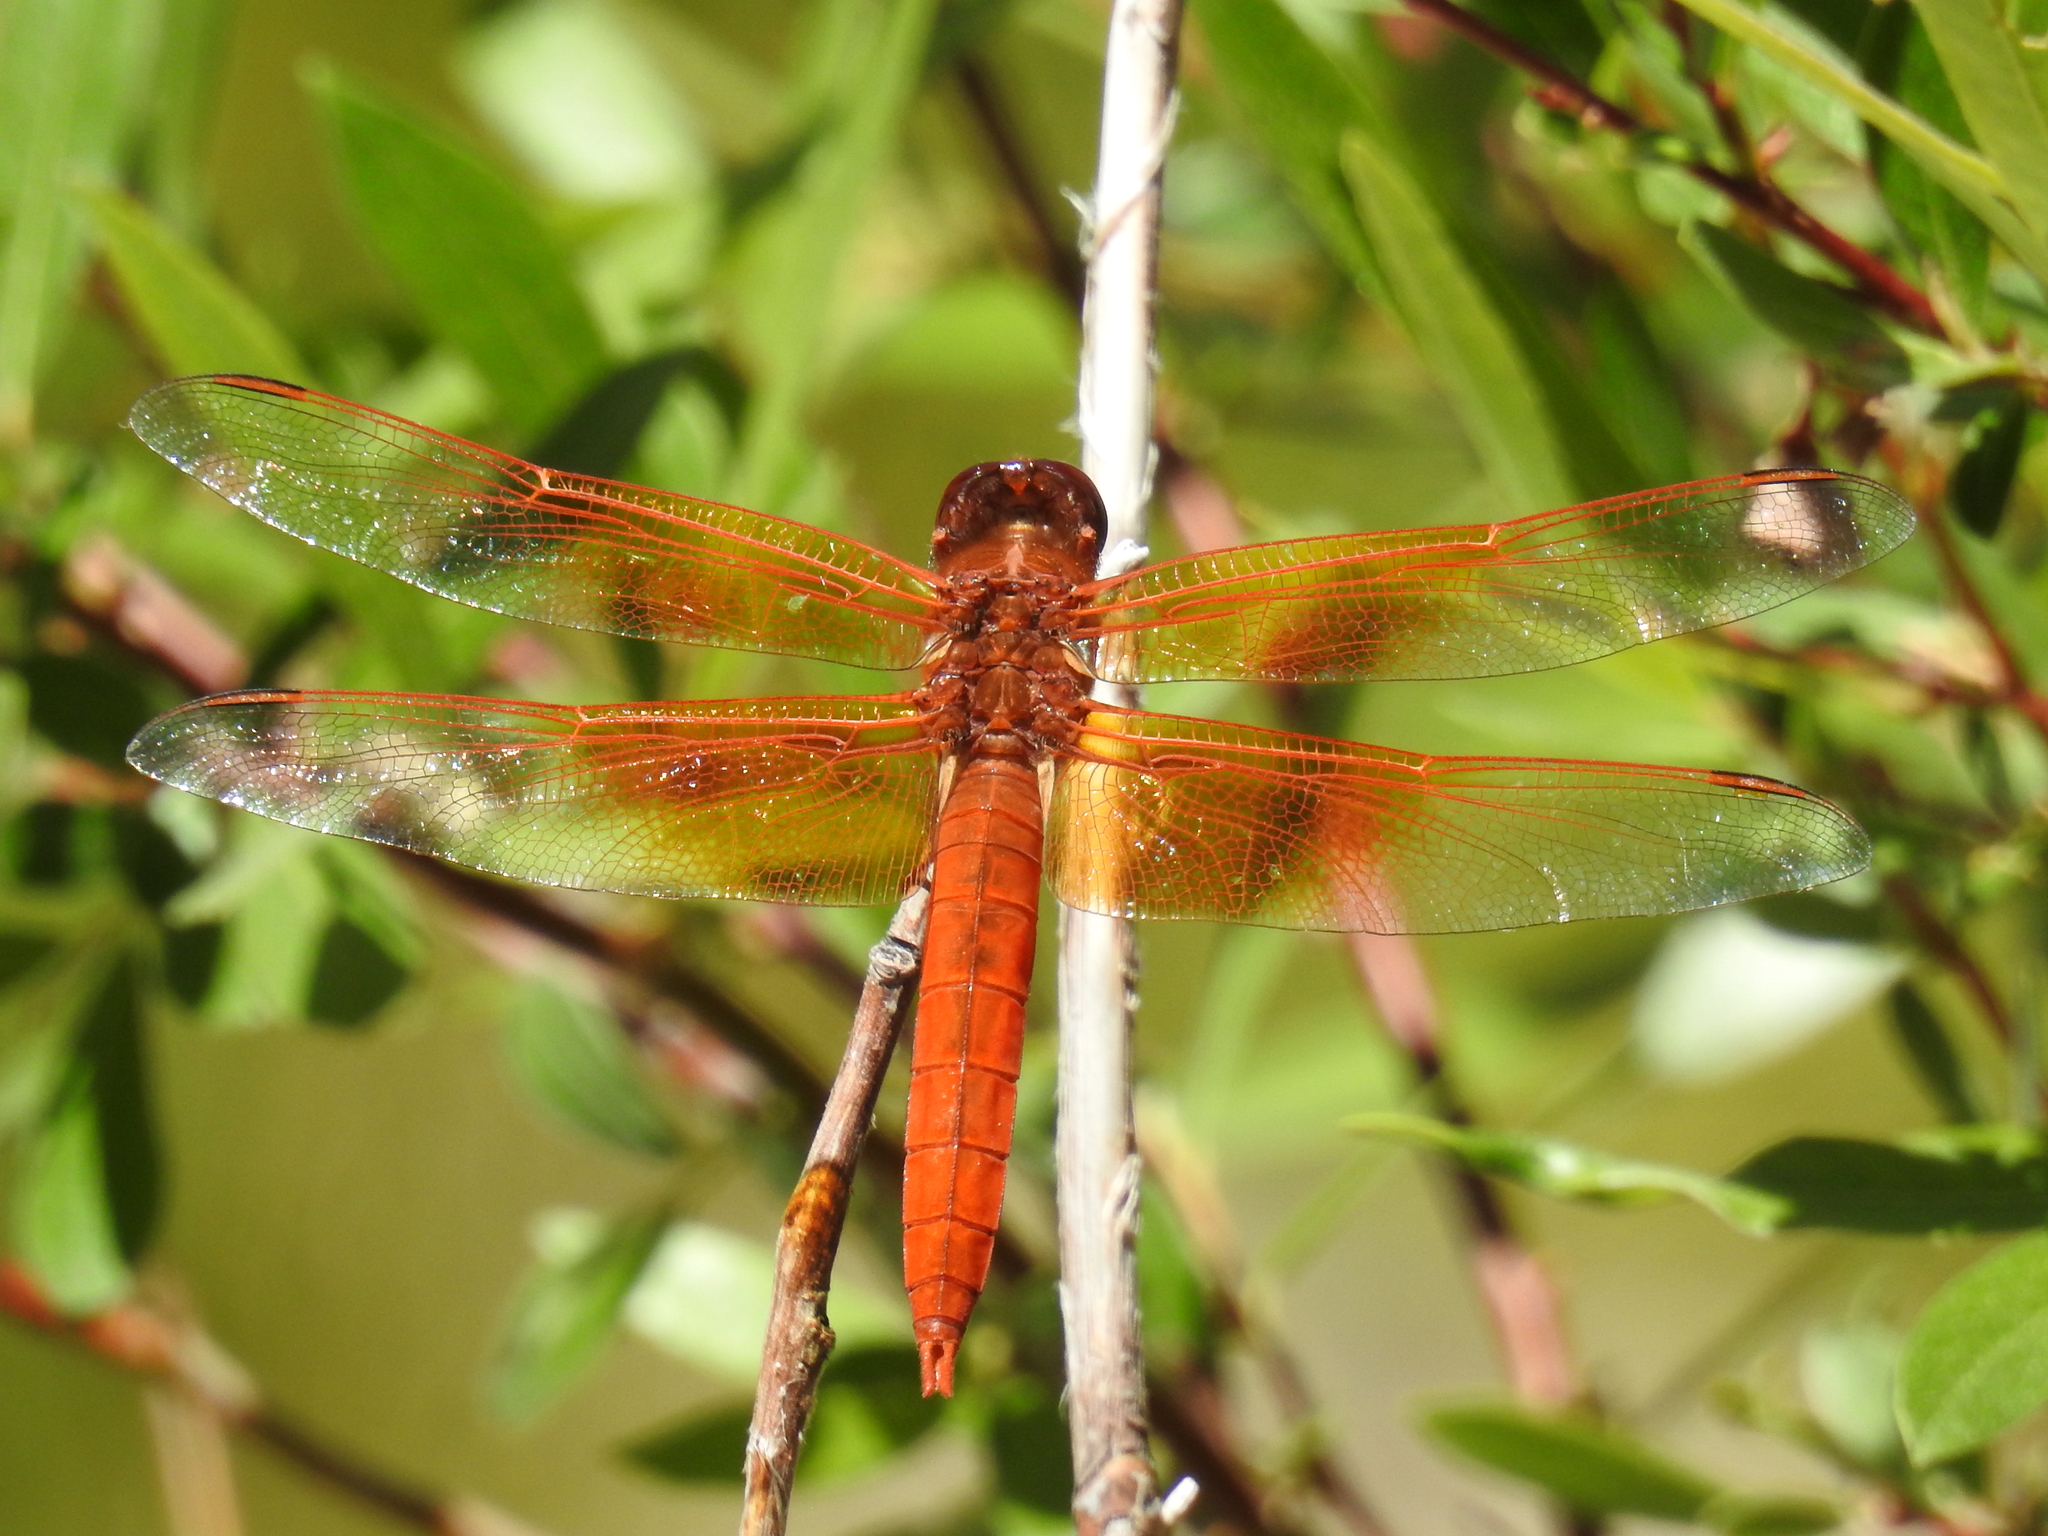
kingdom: Animalia
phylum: Arthropoda
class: Insecta
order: Odonata
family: Libellulidae
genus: Libellula
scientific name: Libellula saturata
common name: Flame skimmer
